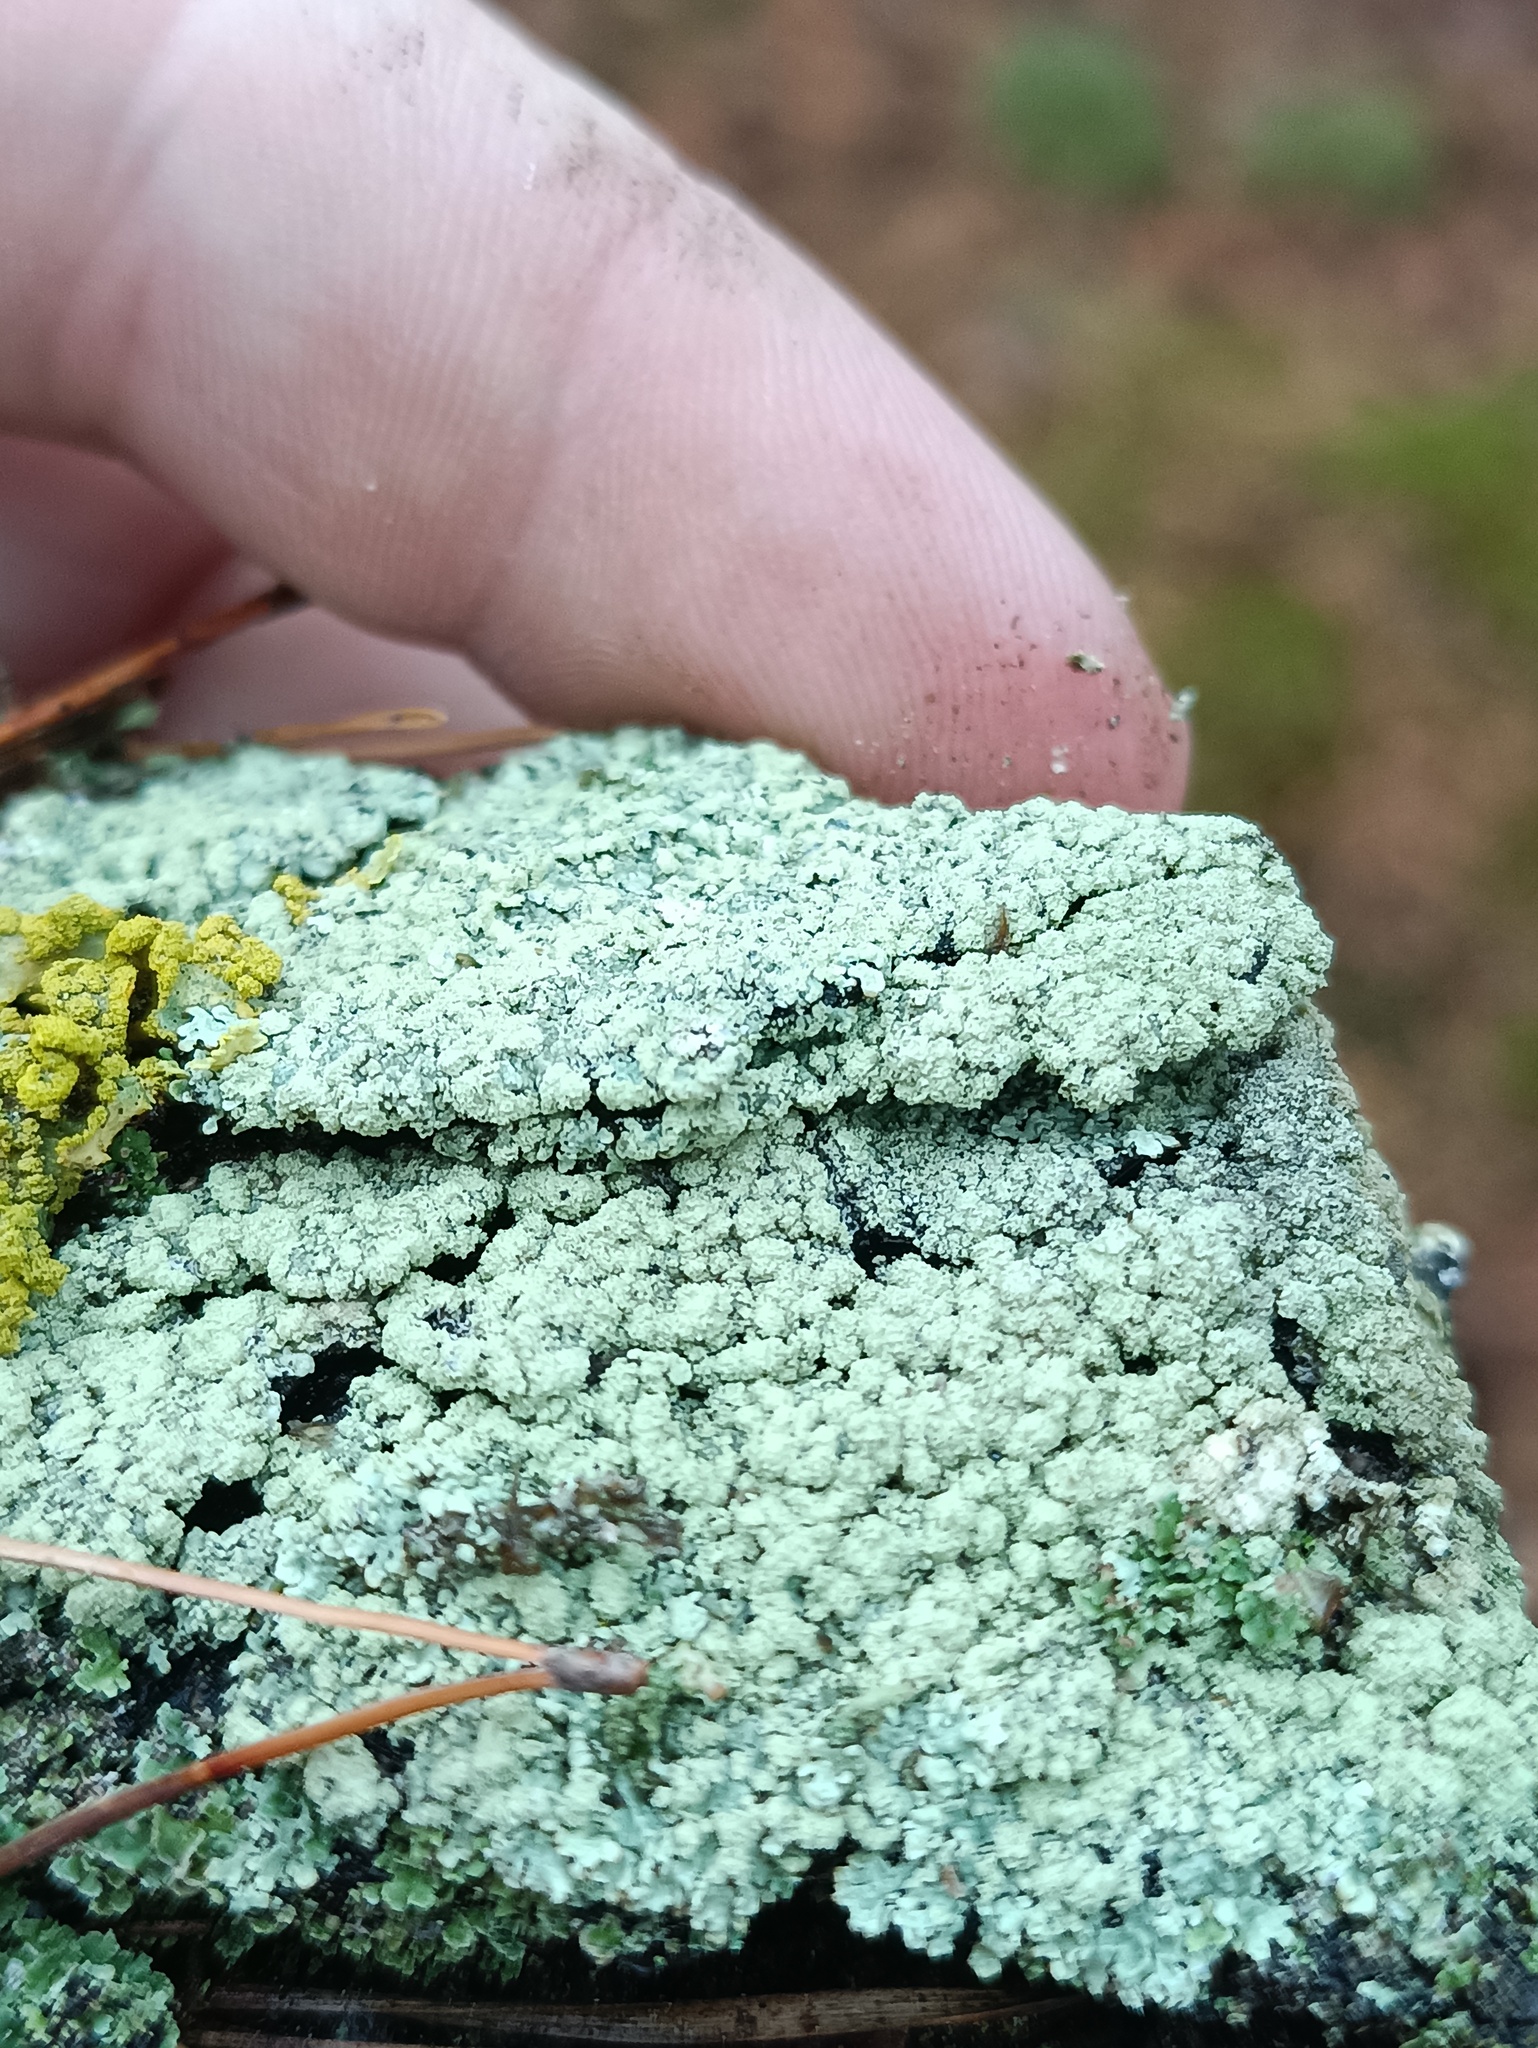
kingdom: Fungi
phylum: Ascomycota
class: Lecanoromycetes
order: Lecanorales
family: Parmeliaceae
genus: Parmeliopsis
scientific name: Parmeliopsis ambigua
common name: Green starburst lichen
